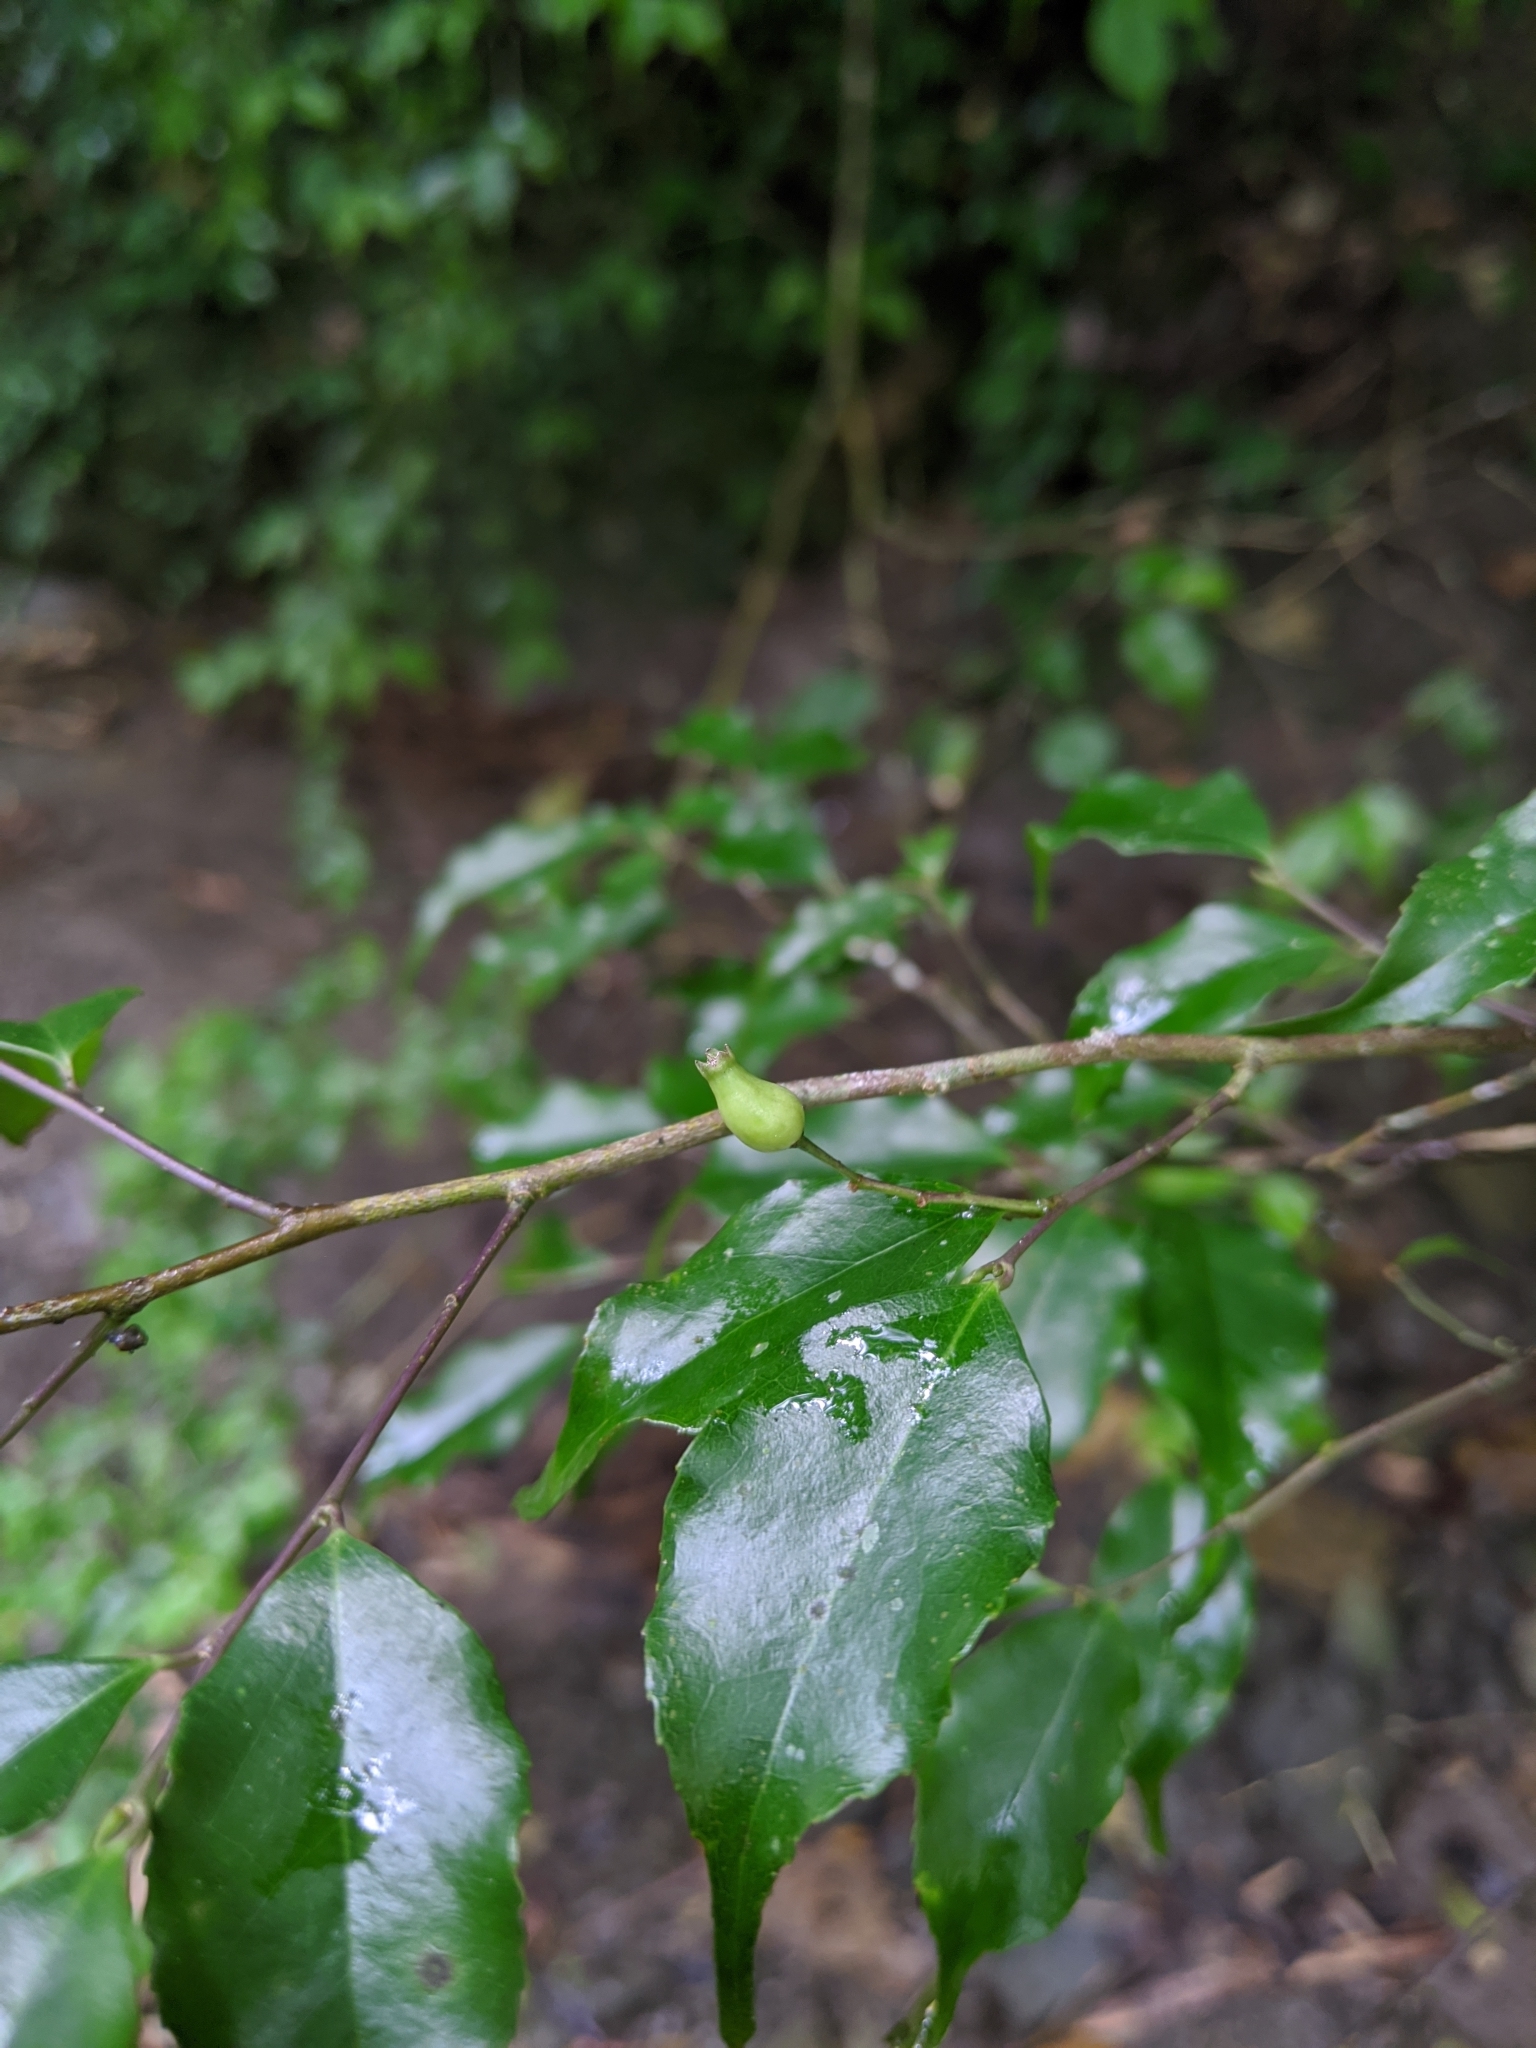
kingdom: Plantae
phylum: Tracheophyta
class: Magnoliopsida
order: Ericales
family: Symplocaceae
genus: Symplocos
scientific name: Symplocos sumuntia
